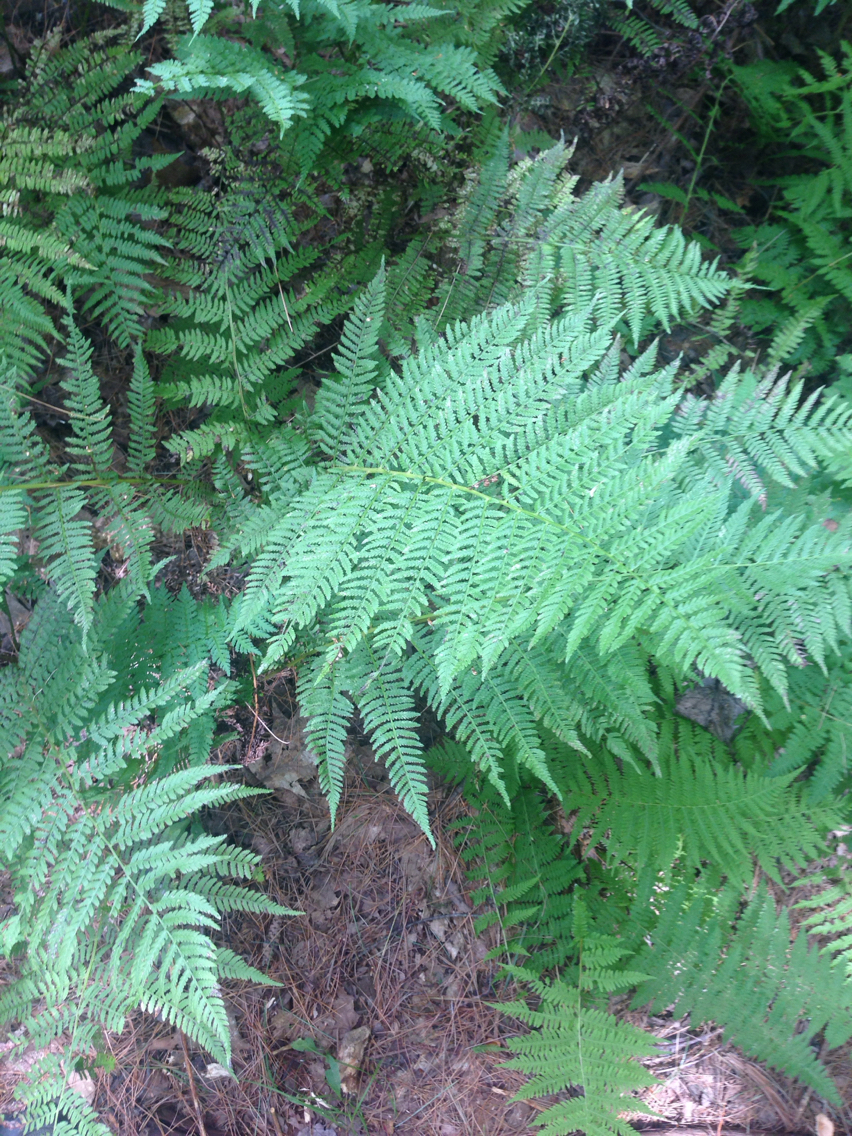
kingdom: Plantae
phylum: Tracheophyta
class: Polypodiopsida
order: Polypodiales
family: Athyriaceae
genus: Athyrium
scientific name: Athyrium angustum
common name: Northern lady fern
